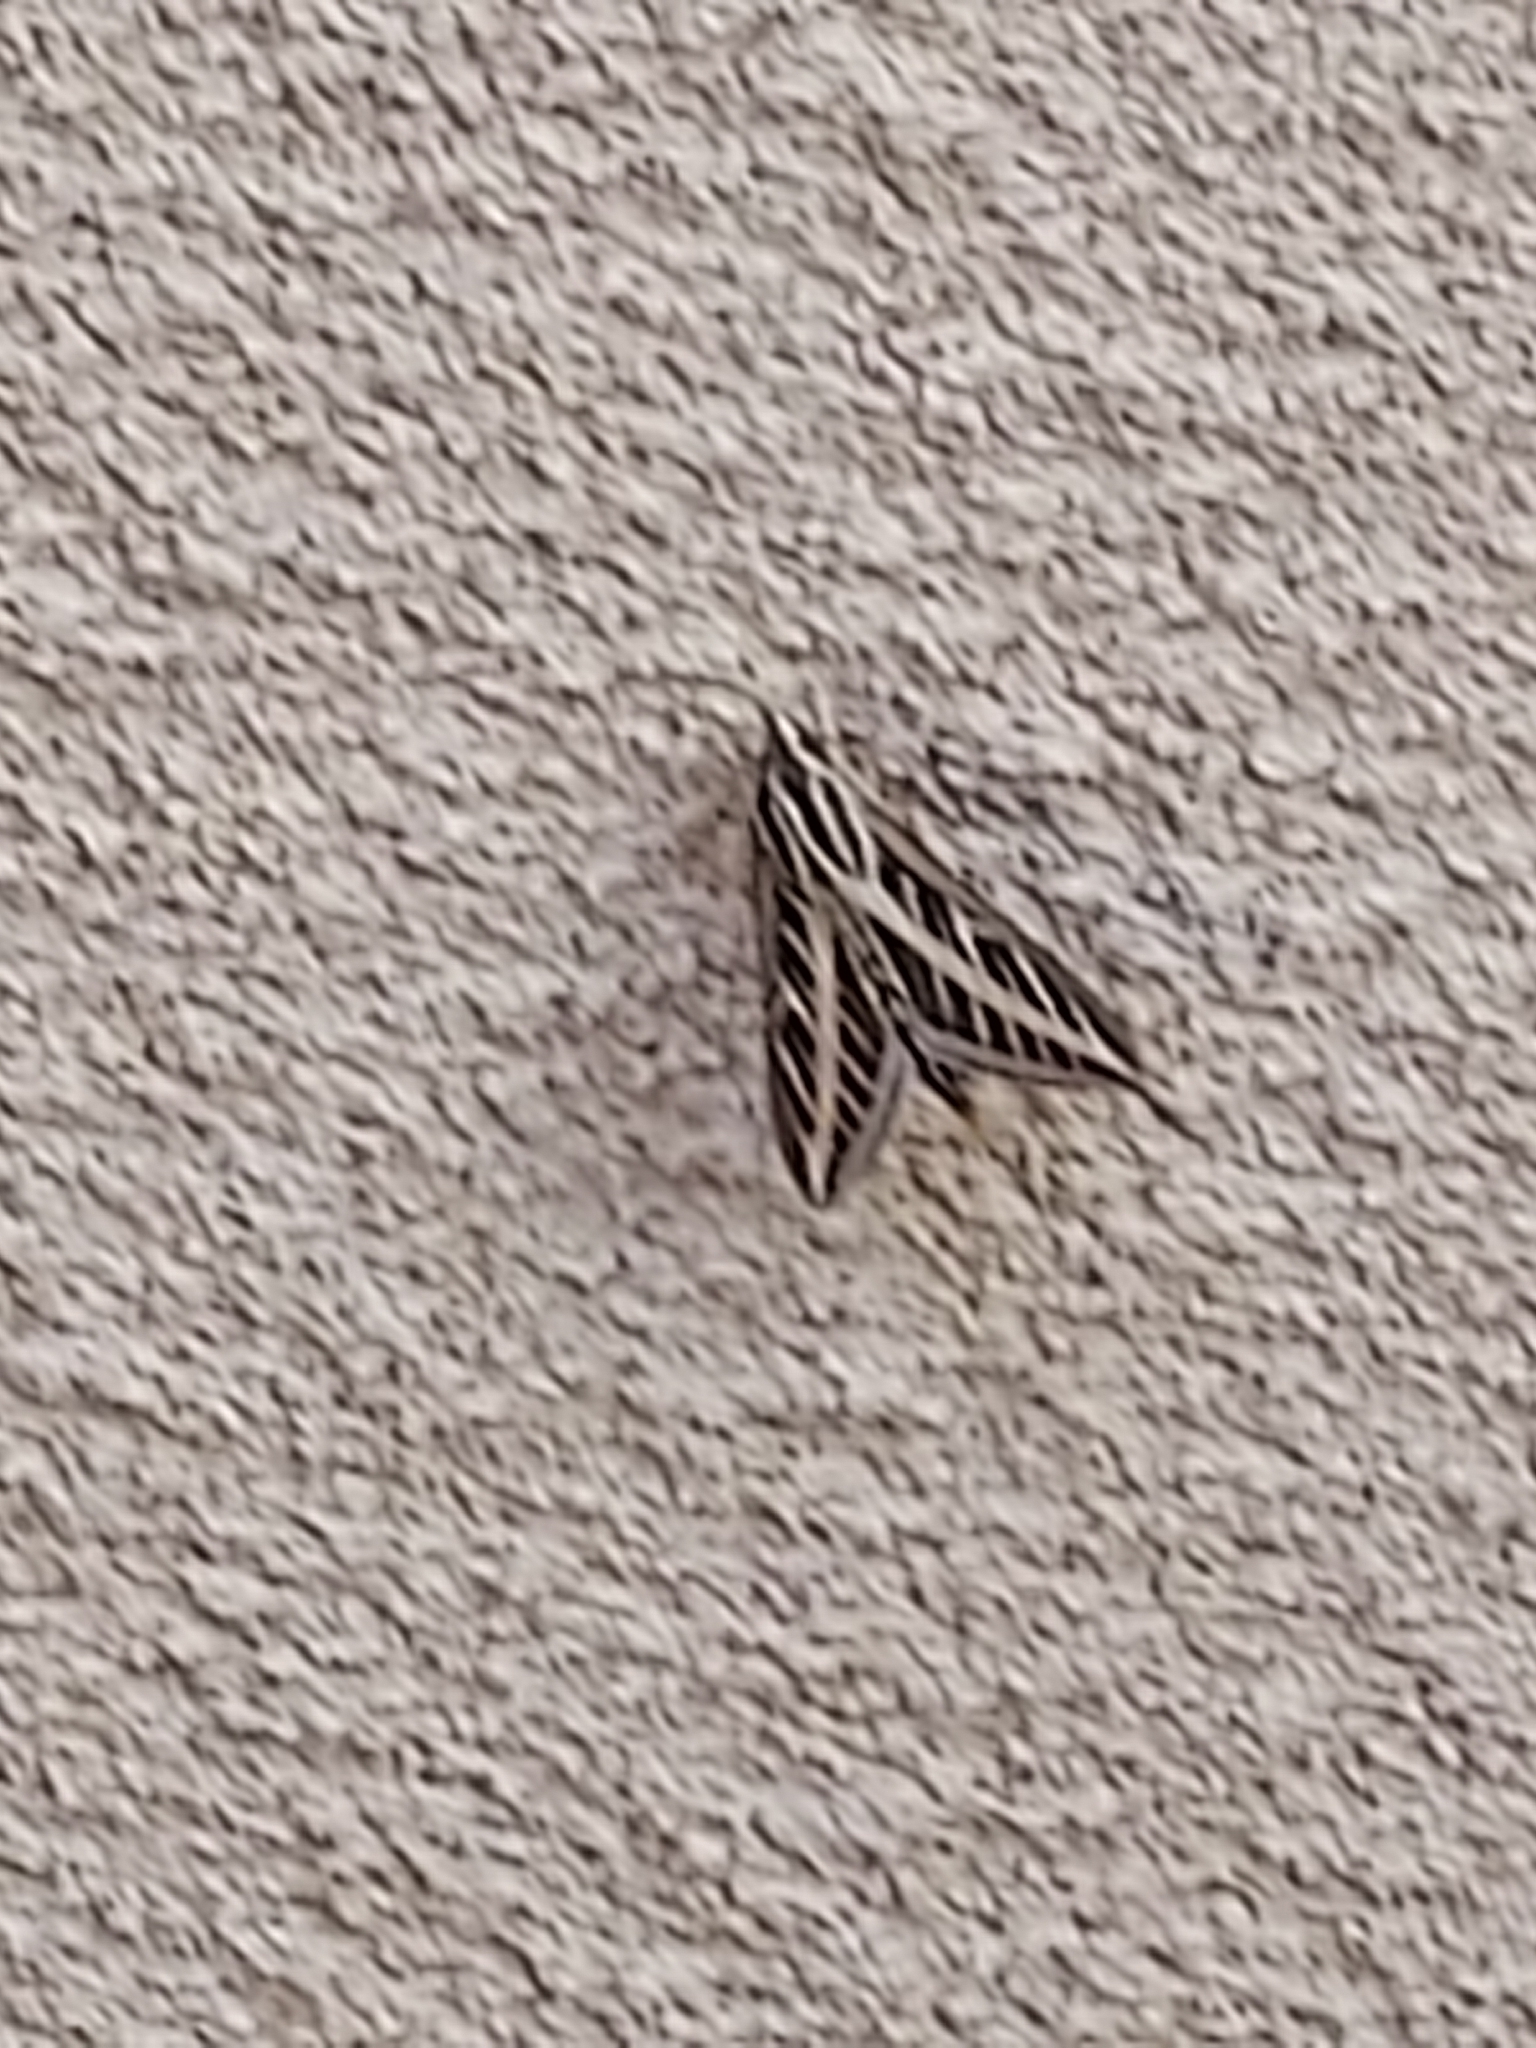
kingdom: Animalia
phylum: Arthropoda
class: Insecta
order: Lepidoptera
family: Sphingidae
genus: Hyles
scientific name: Hyles lineata
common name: White-lined sphinx
